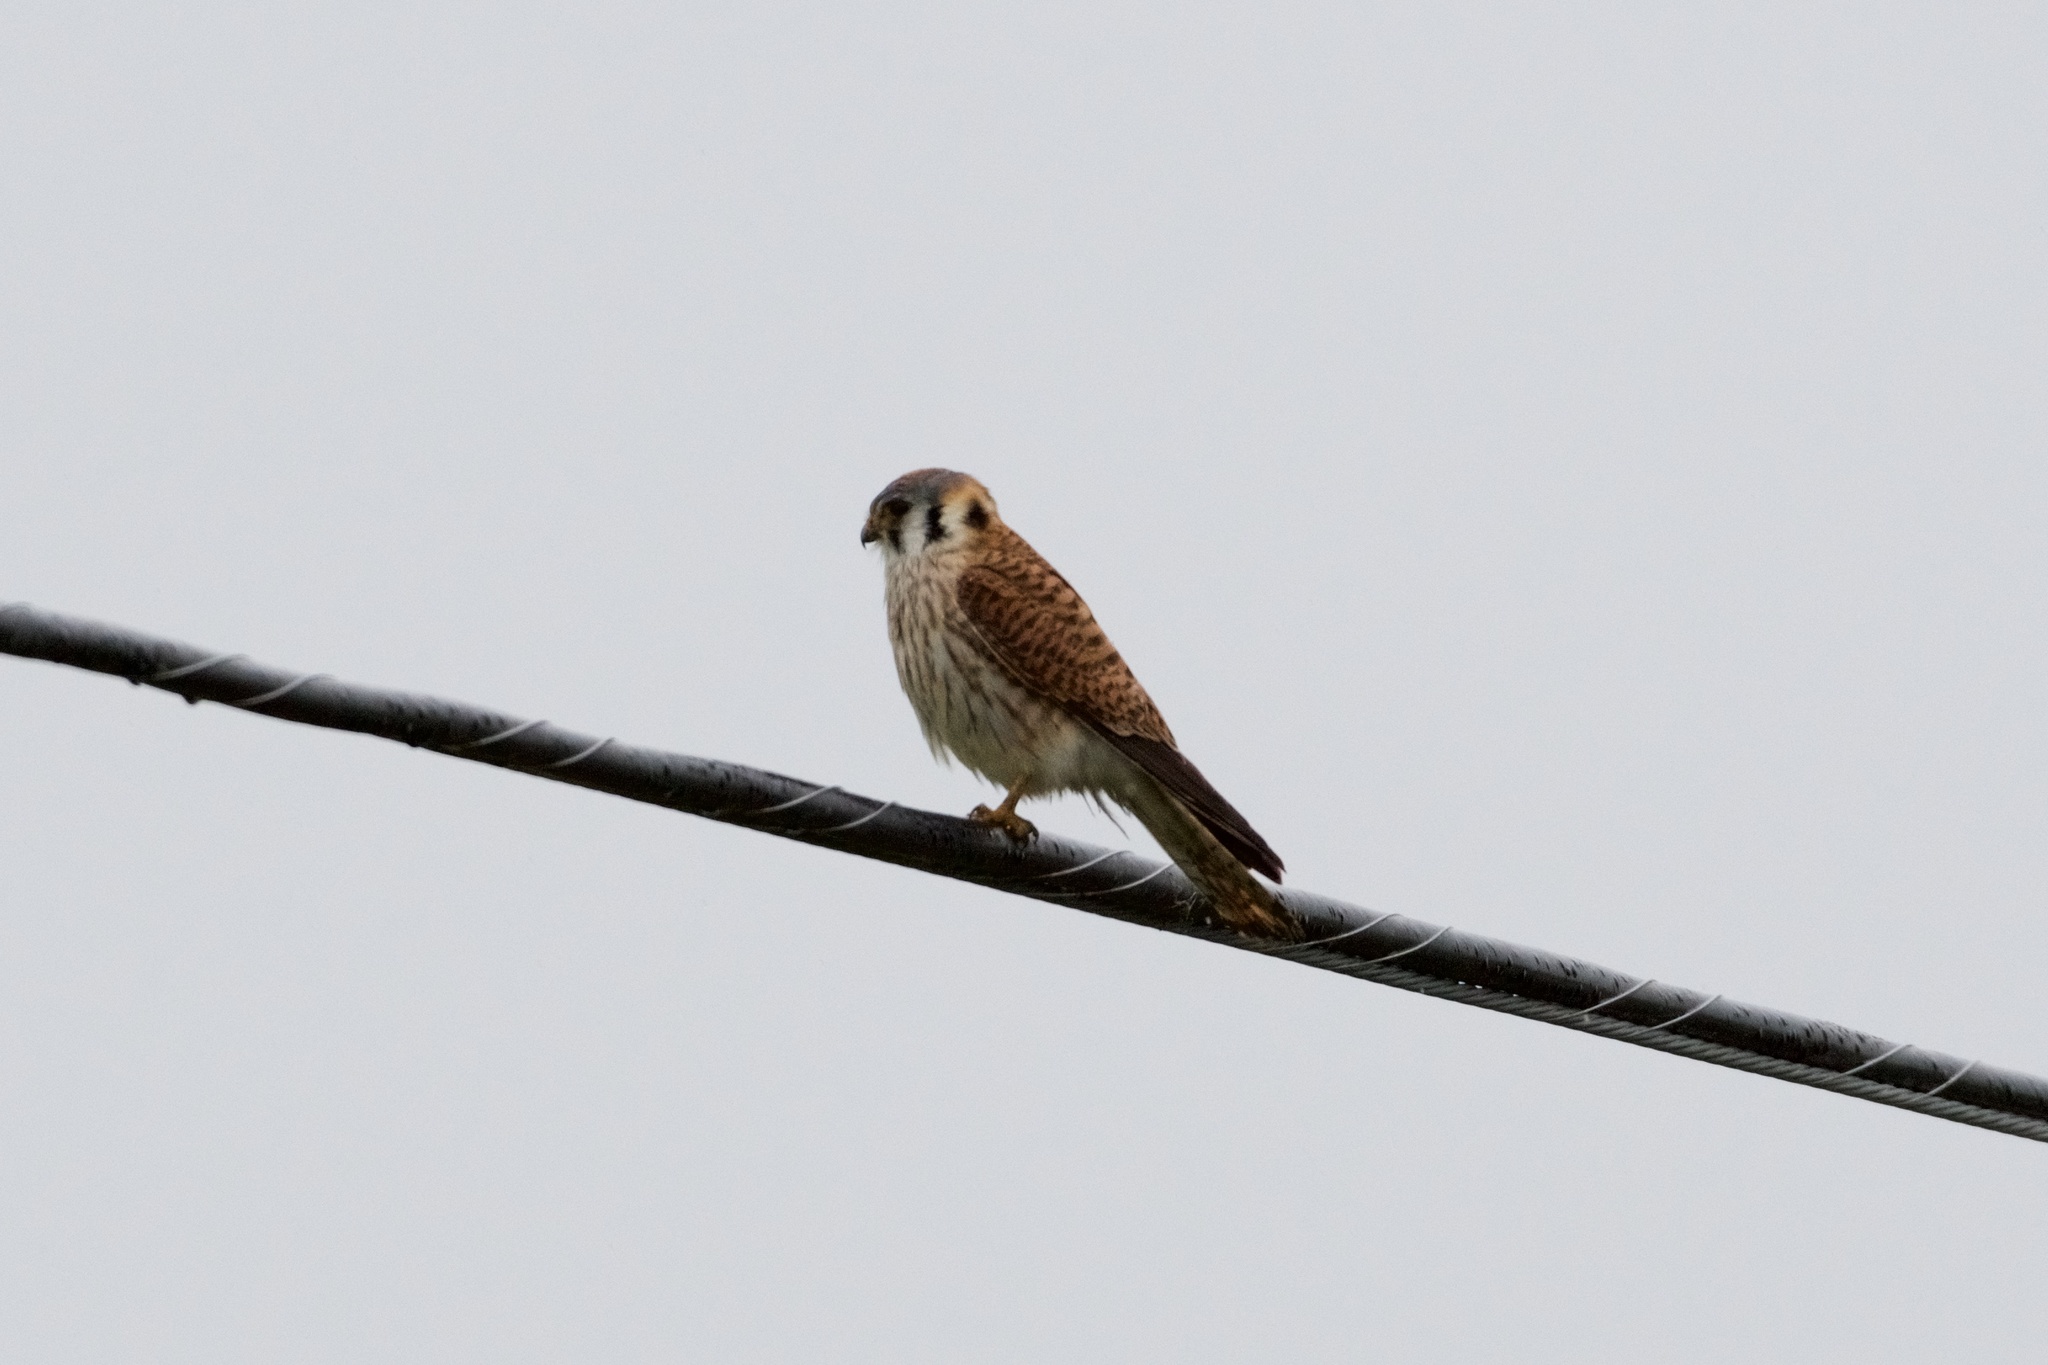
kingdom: Animalia
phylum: Chordata
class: Aves
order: Falconiformes
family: Falconidae
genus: Falco
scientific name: Falco sparverius
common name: American kestrel
